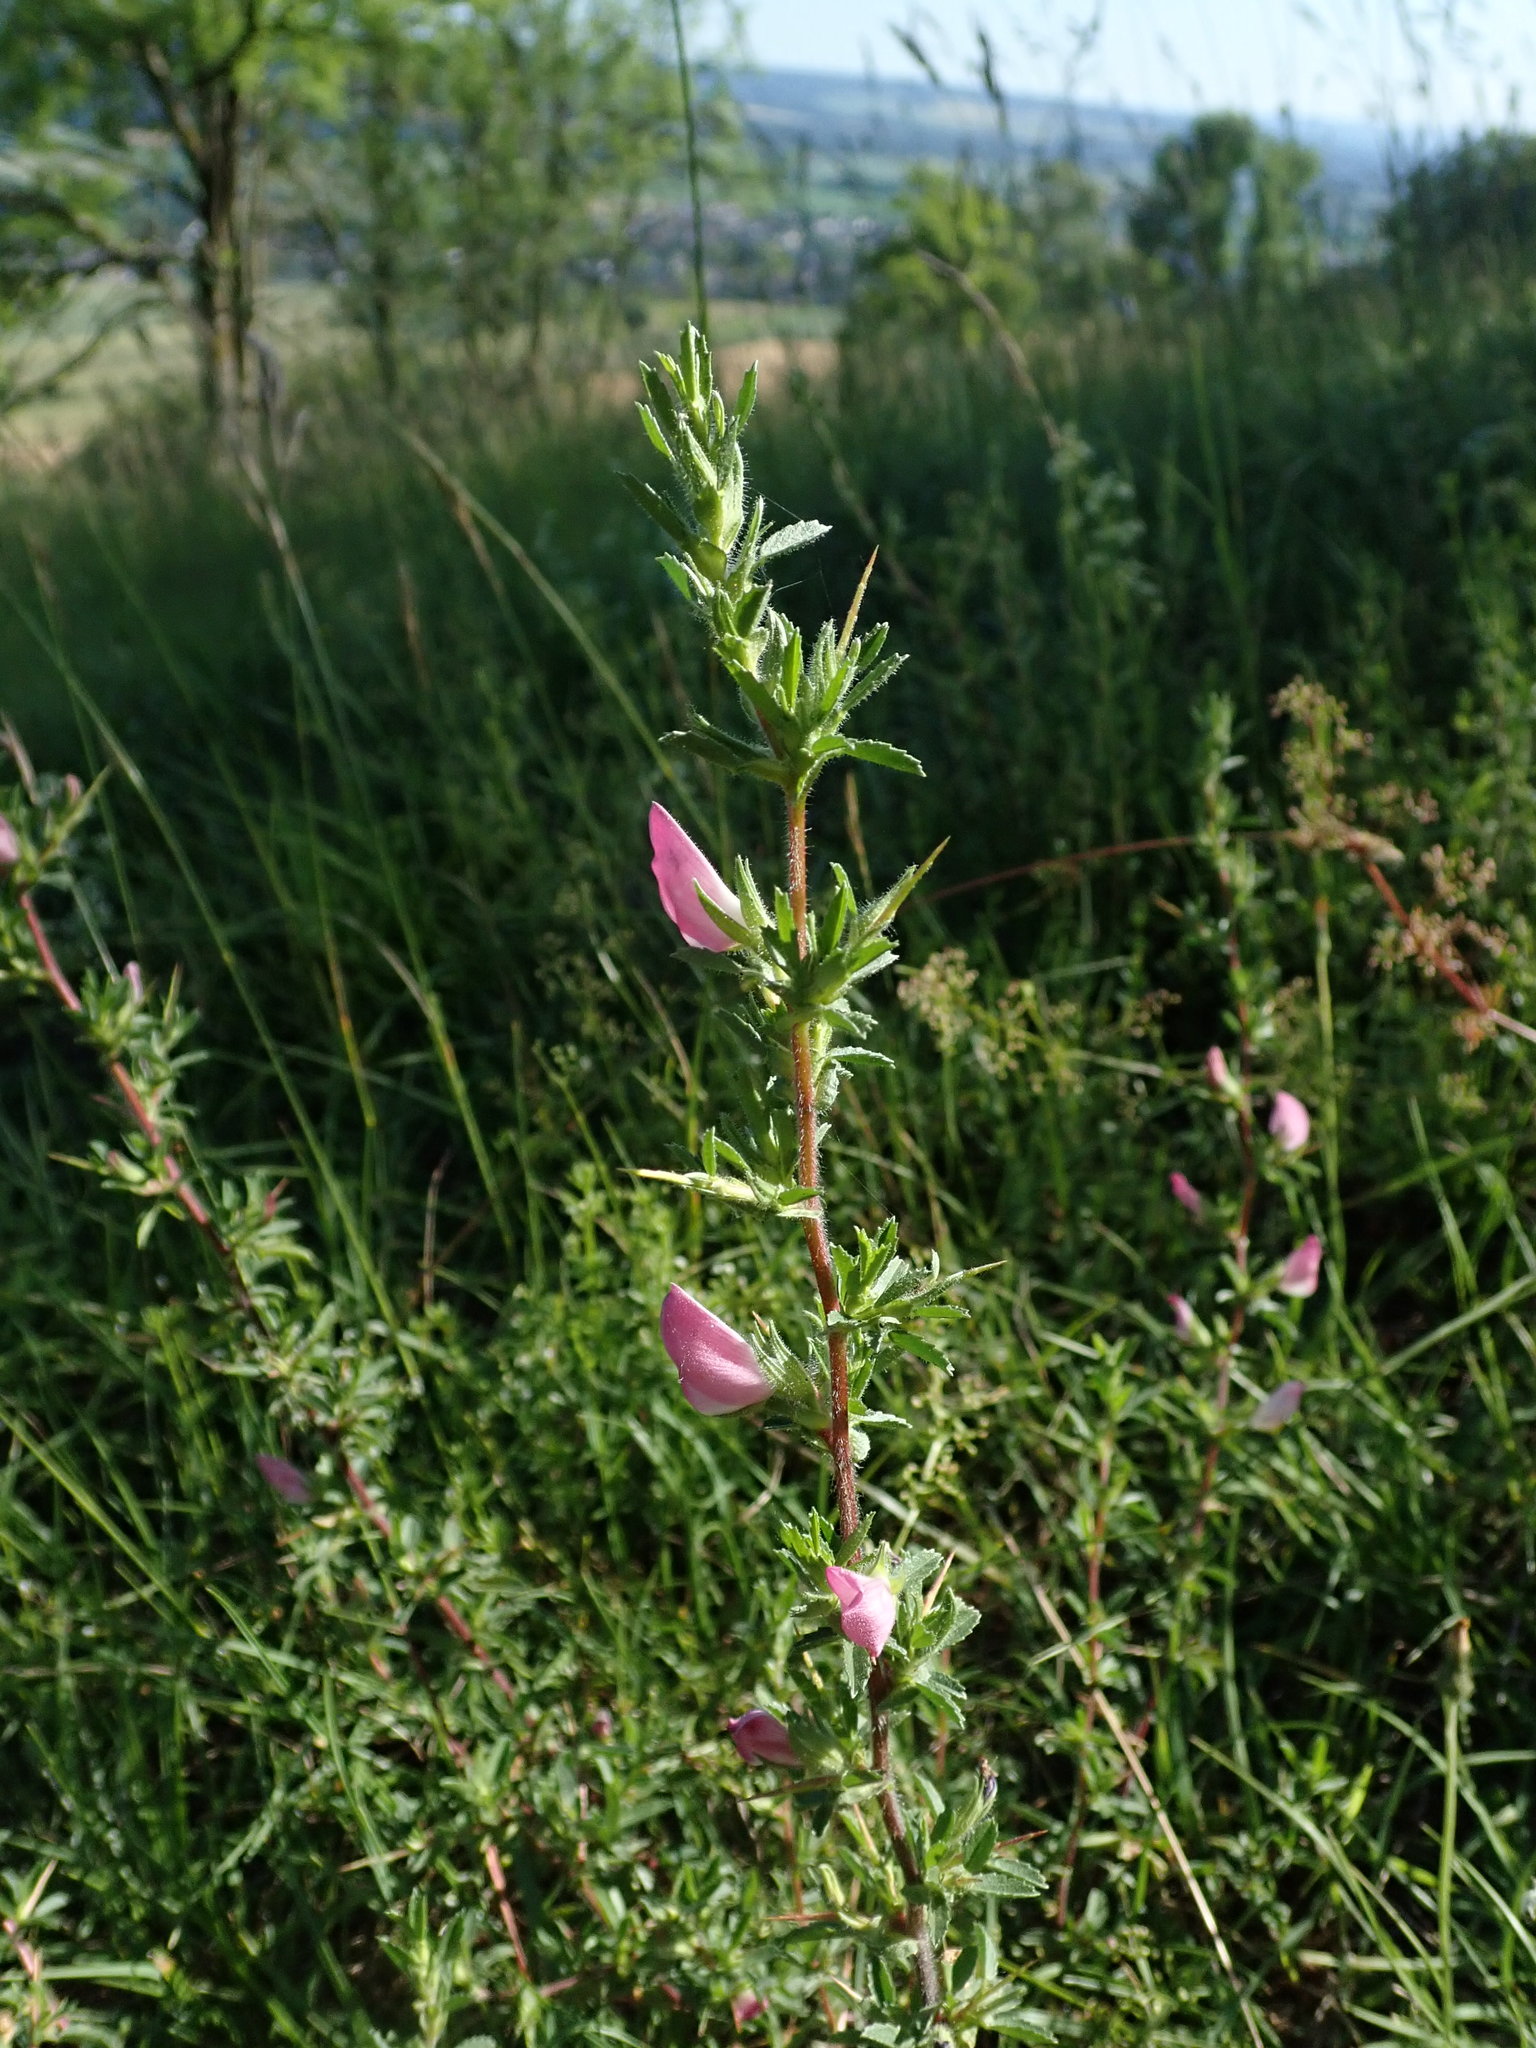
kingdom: Plantae
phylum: Tracheophyta
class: Magnoliopsida
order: Fabales
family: Fabaceae
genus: Ononis
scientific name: Ononis spinosa
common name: Spiny restharrow
